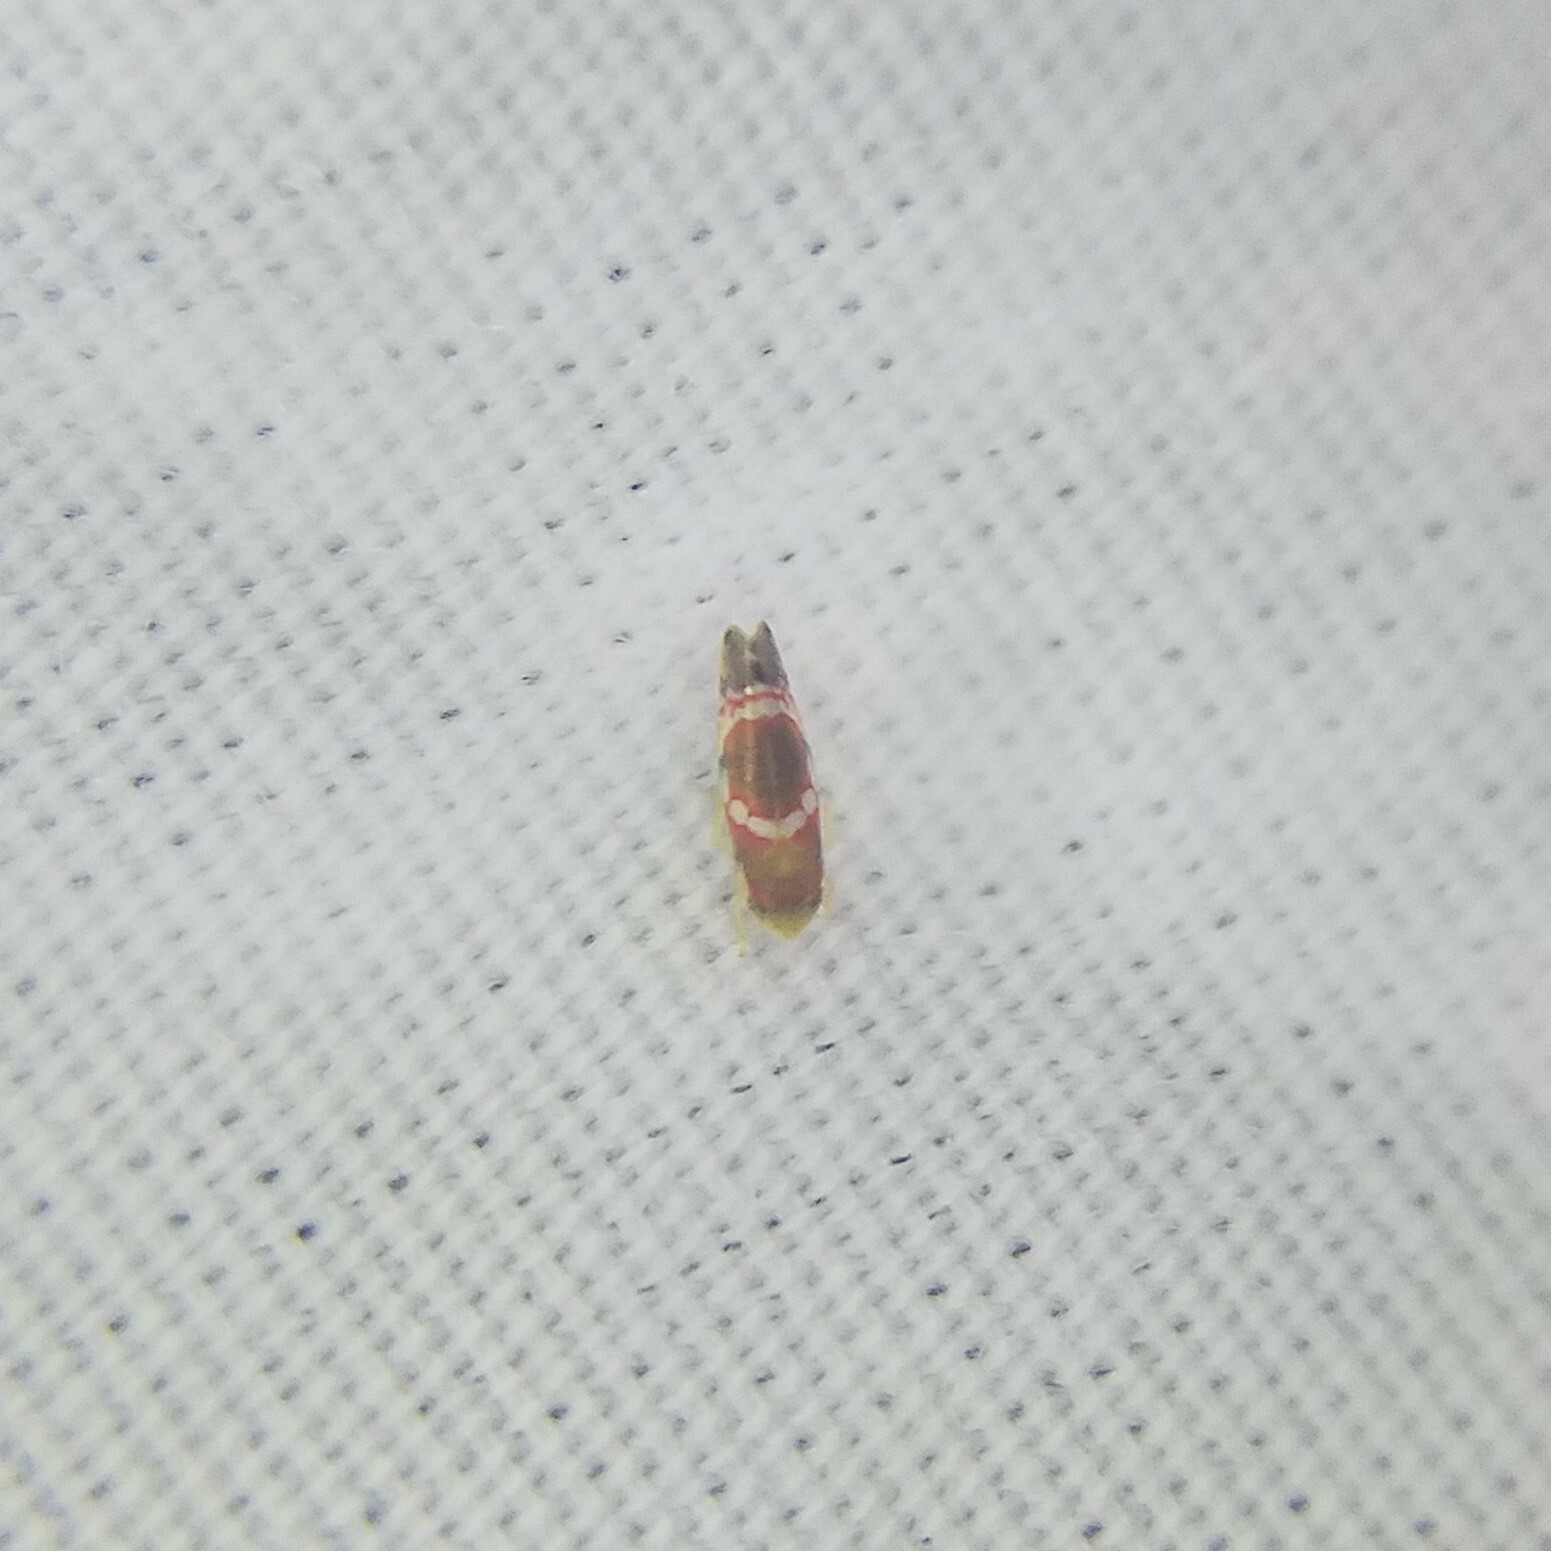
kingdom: Animalia
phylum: Arthropoda
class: Insecta
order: Hemiptera
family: Cicadellidae
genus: Erythroneura
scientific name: Erythroneura vitis
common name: Grapevine leafhopper
